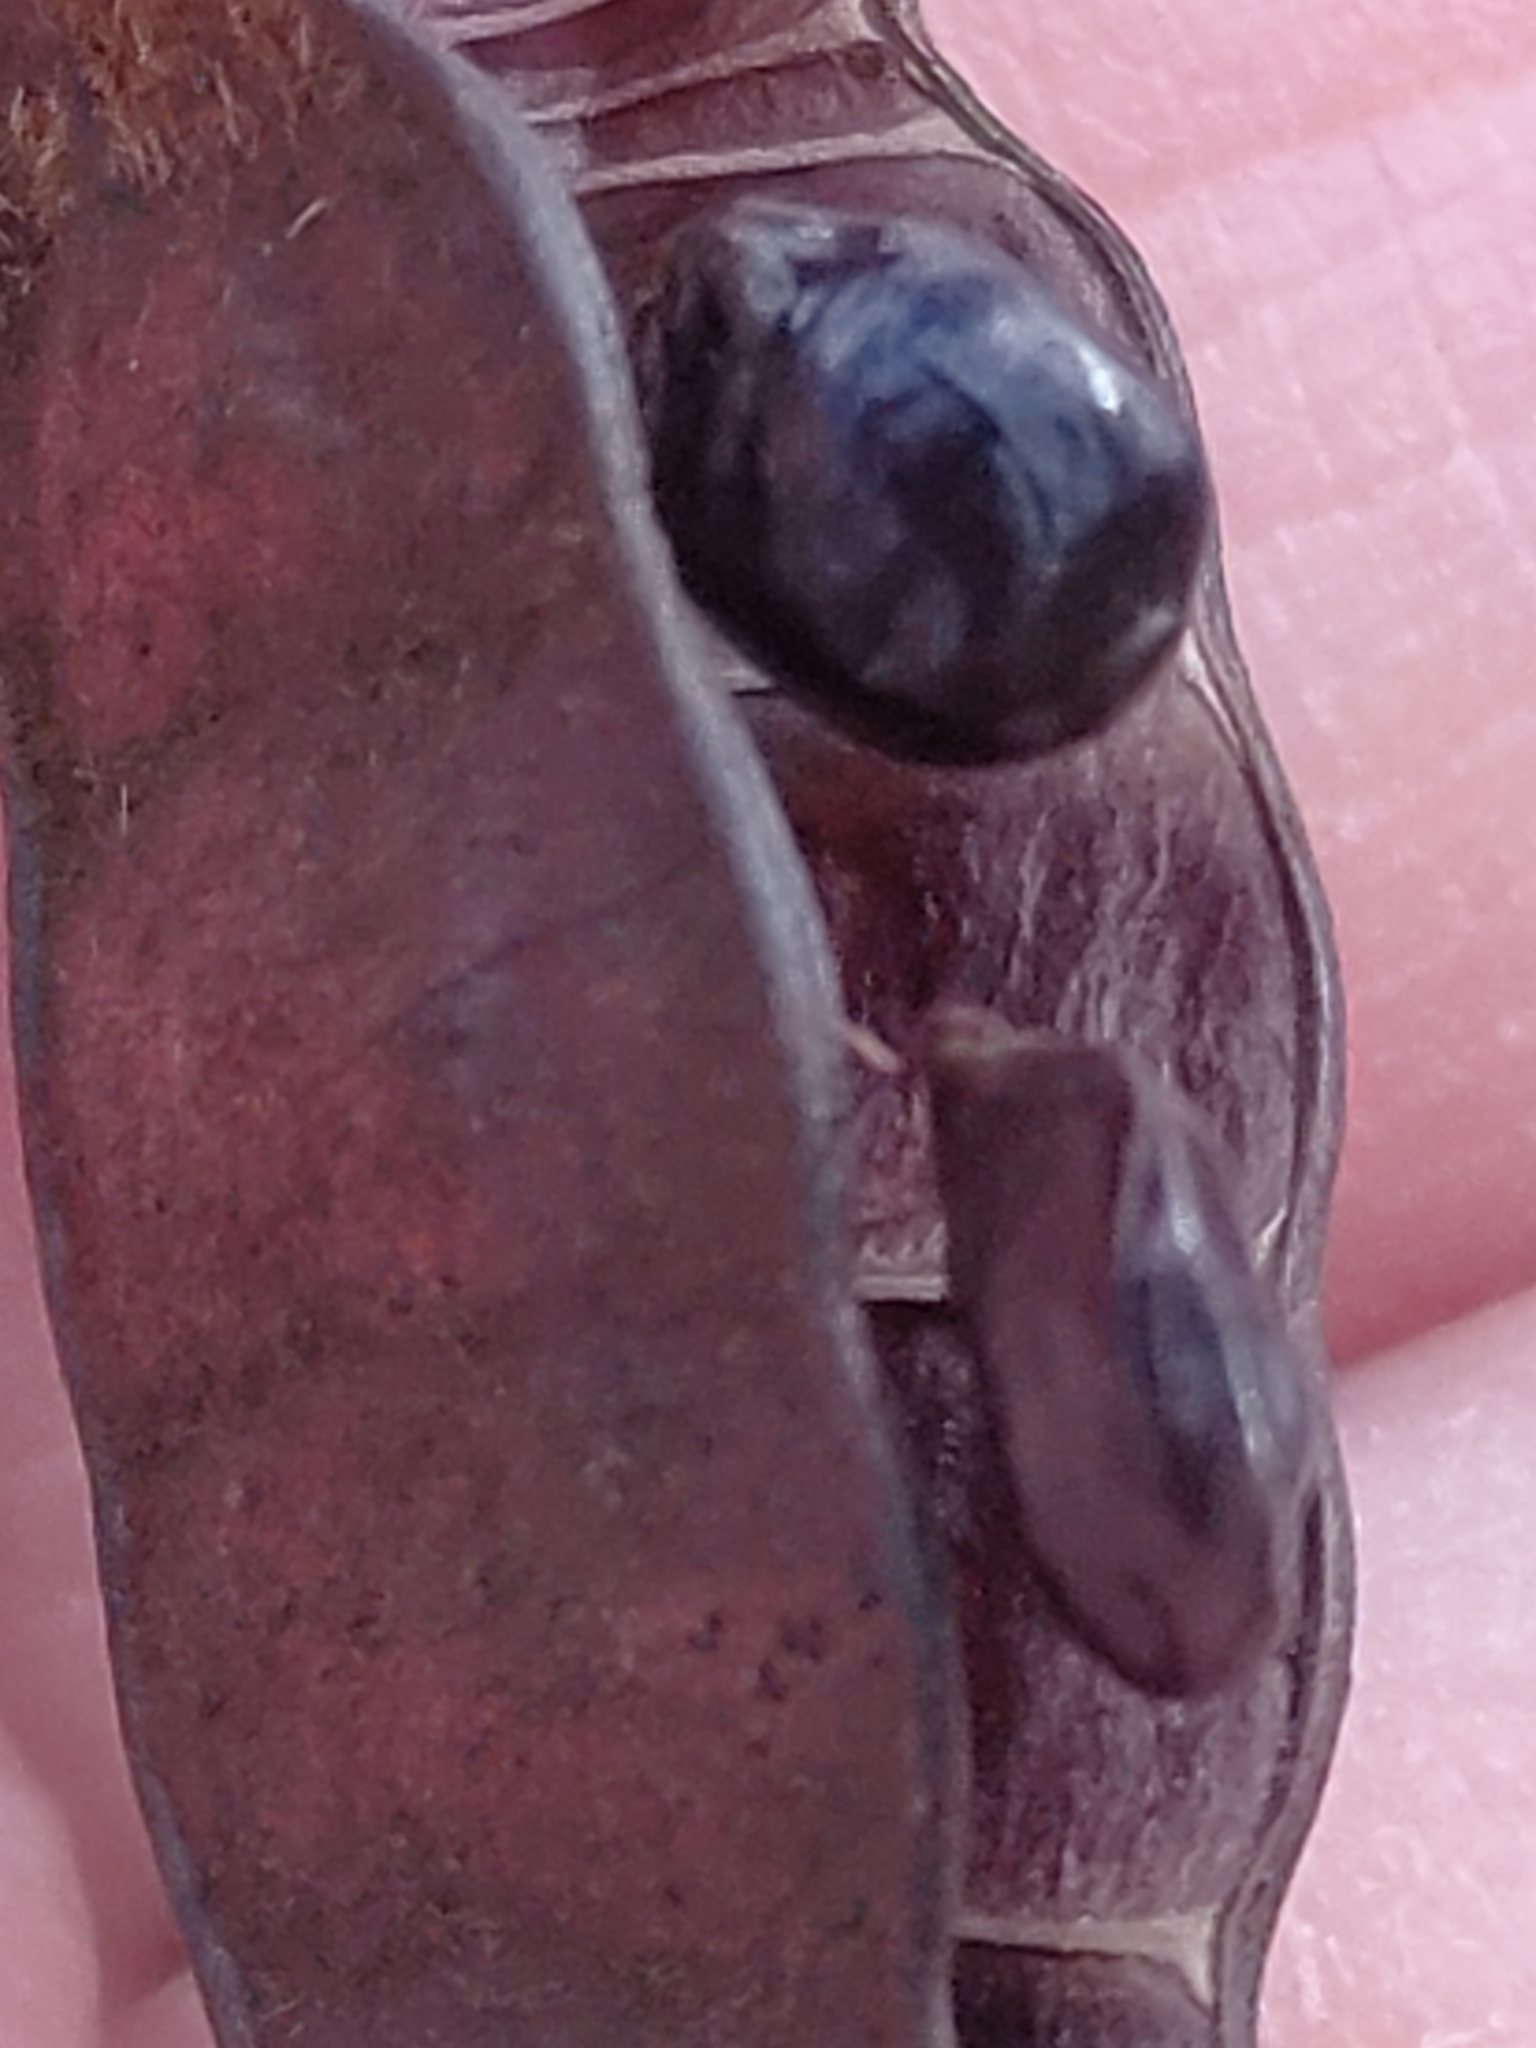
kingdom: Plantae
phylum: Tracheophyta
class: Magnoliopsida
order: Fabales
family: Fabaceae
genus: Senna
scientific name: Senna gaudichaudii
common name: Climbing cassia
